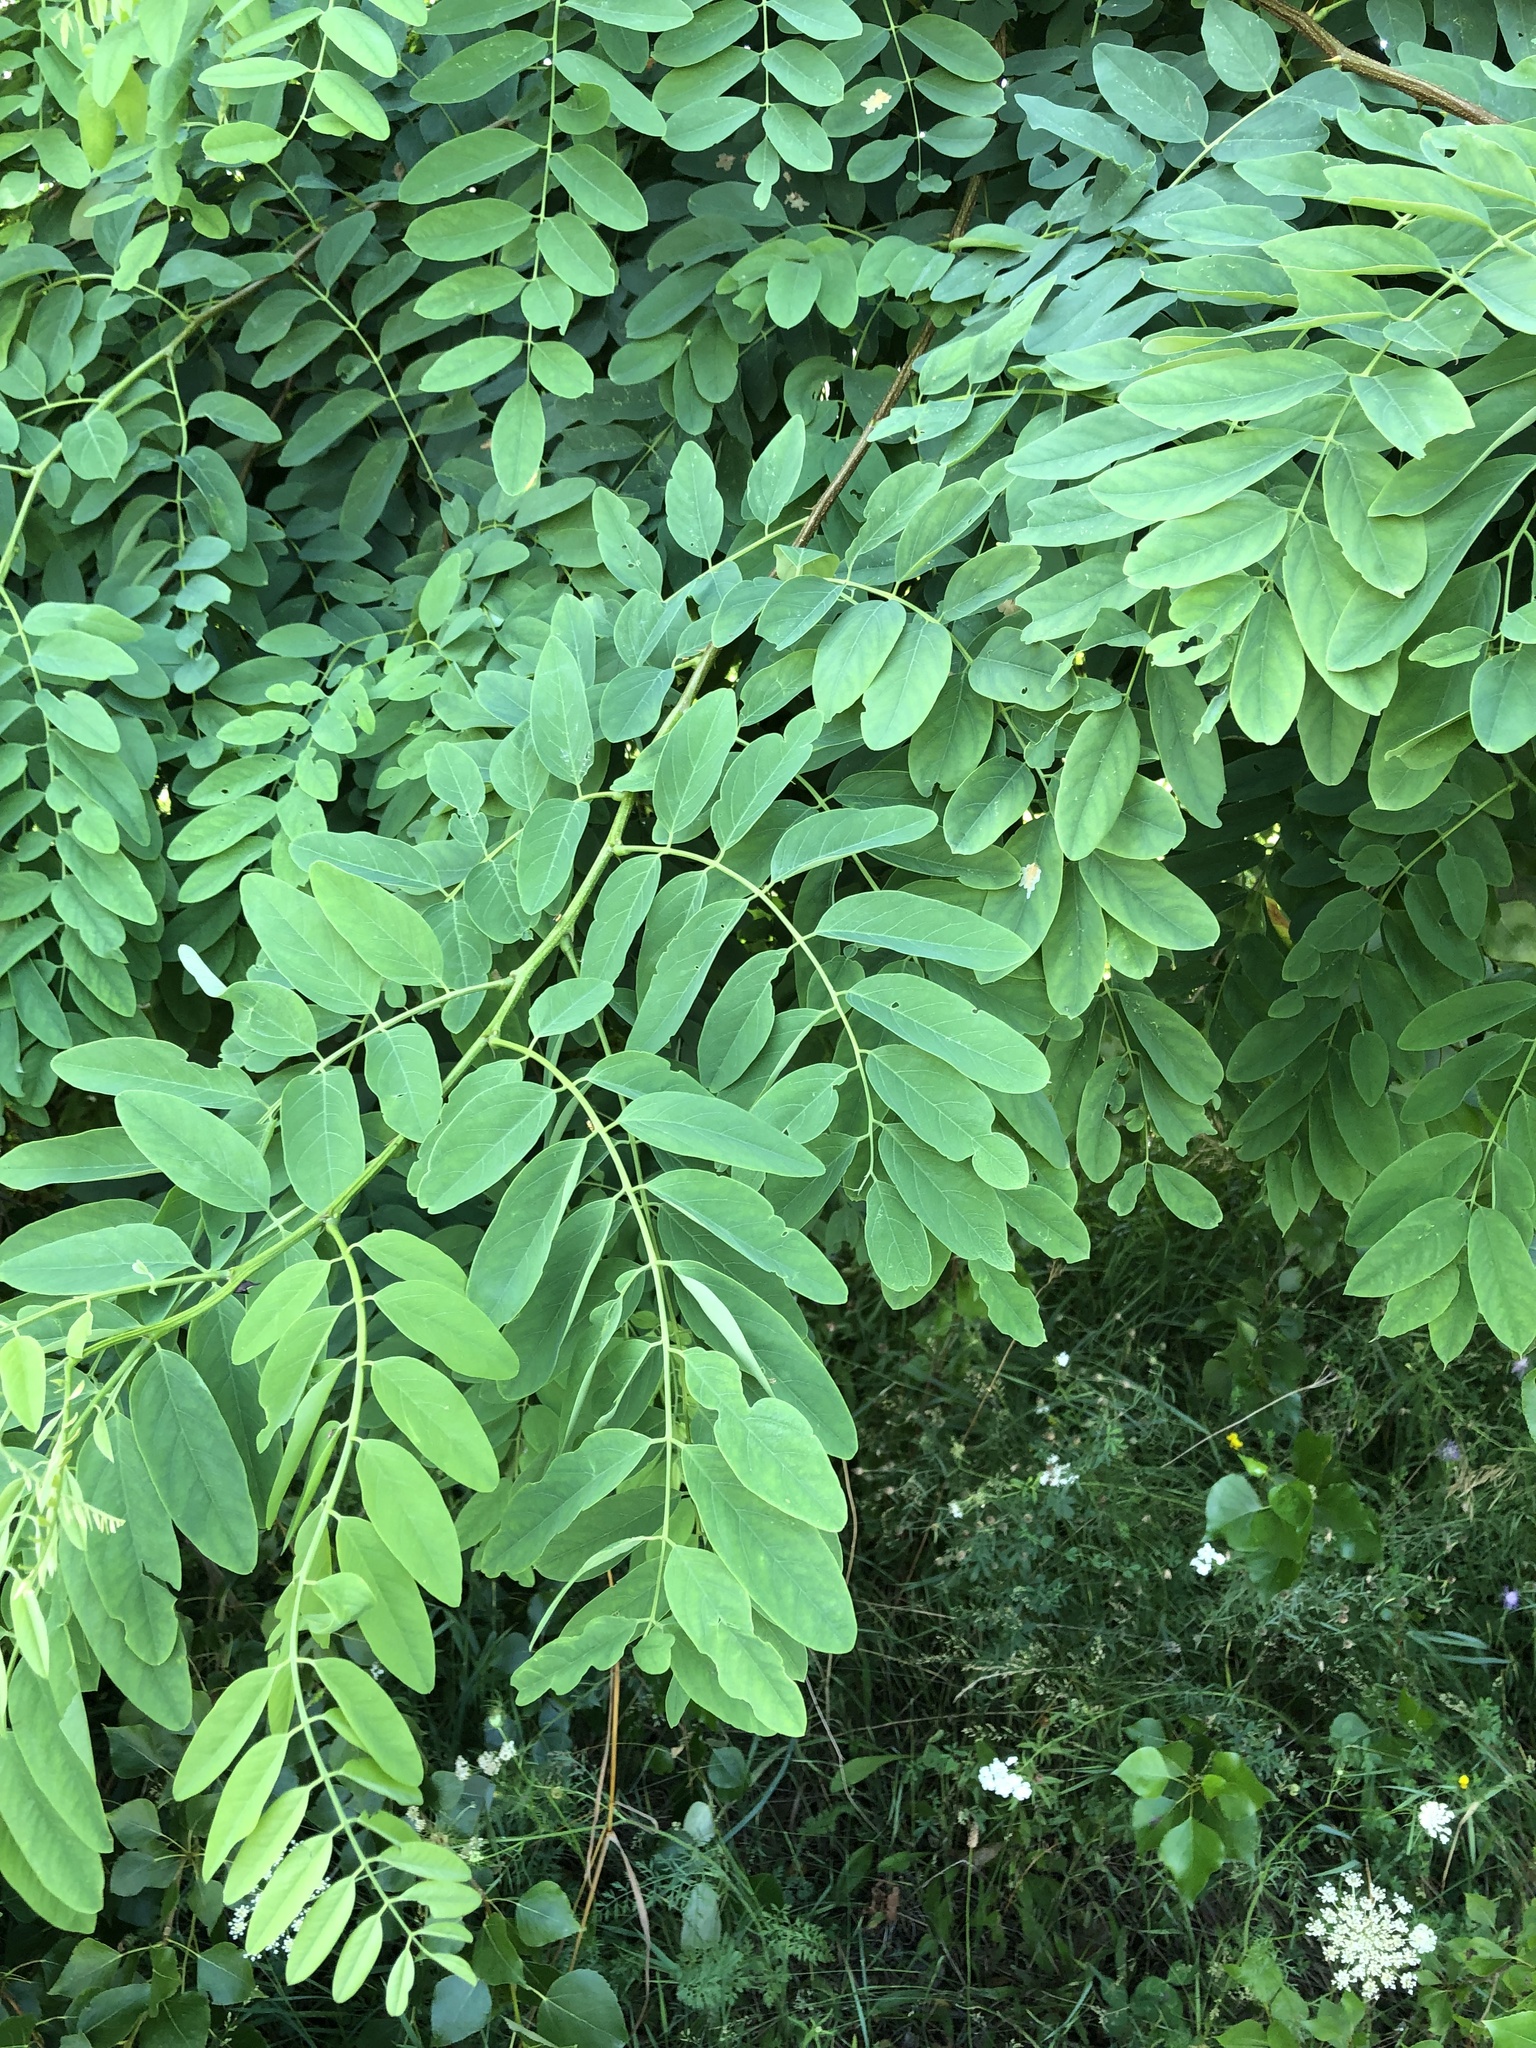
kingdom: Plantae
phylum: Tracheophyta
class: Magnoliopsida
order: Fabales
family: Fabaceae
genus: Robinia
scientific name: Robinia pseudoacacia
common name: Black locust
